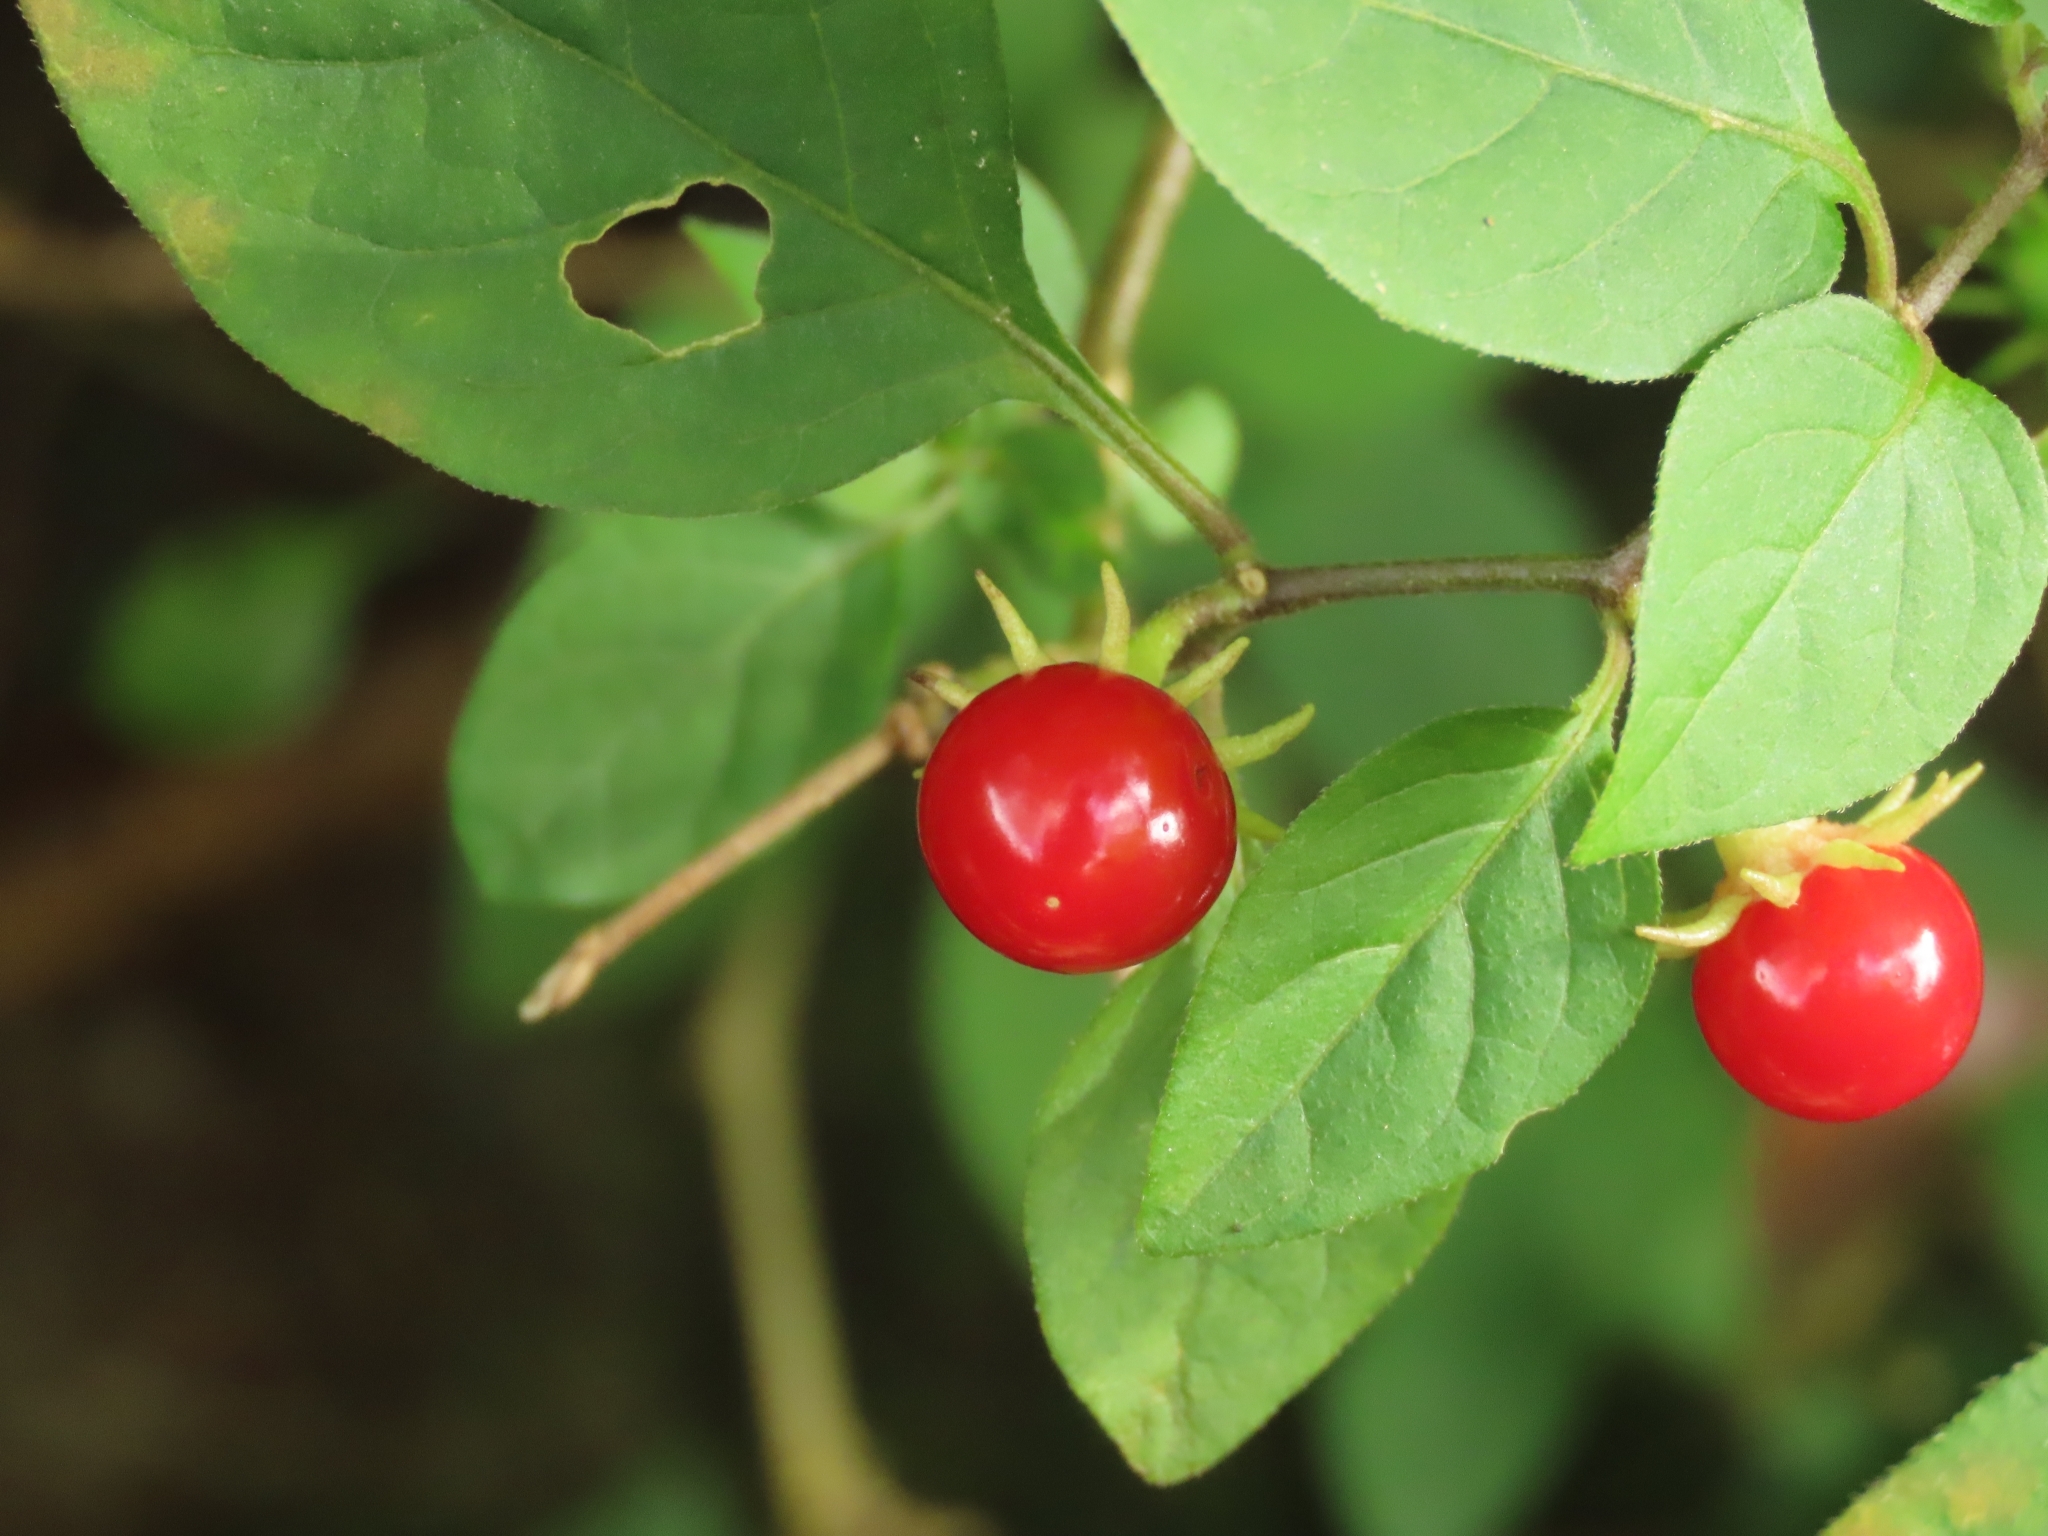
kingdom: Plantae
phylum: Tracheophyta
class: Magnoliopsida
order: Solanales
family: Solanaceae
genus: Lycianthes
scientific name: Lycianthes biflora
